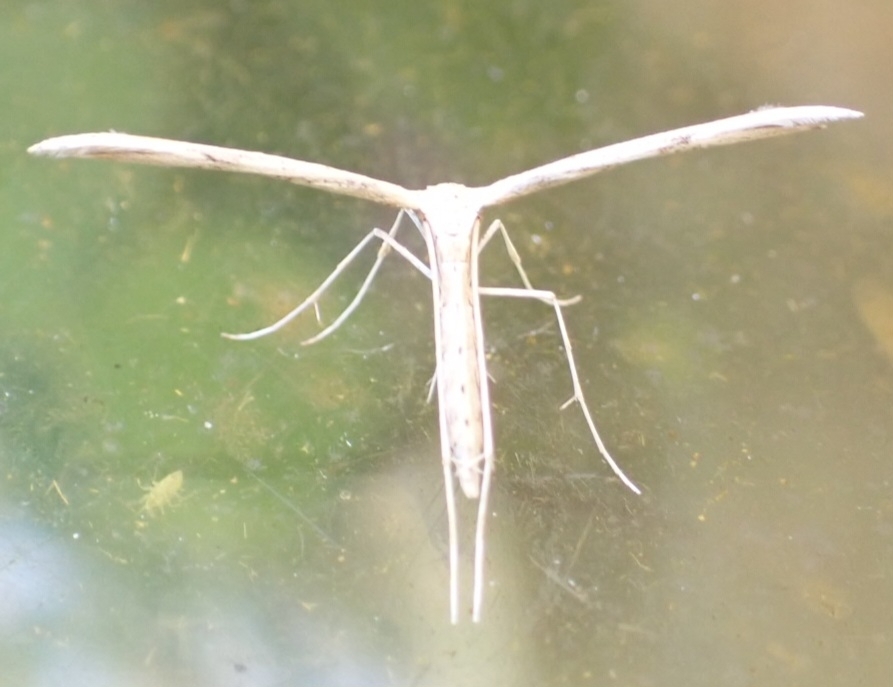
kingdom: Animalia
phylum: Arthropoda
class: Insecta
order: Lepidoptera
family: Pterophoridae
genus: Emmelina
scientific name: Emmelina monodactyla
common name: Common plume
